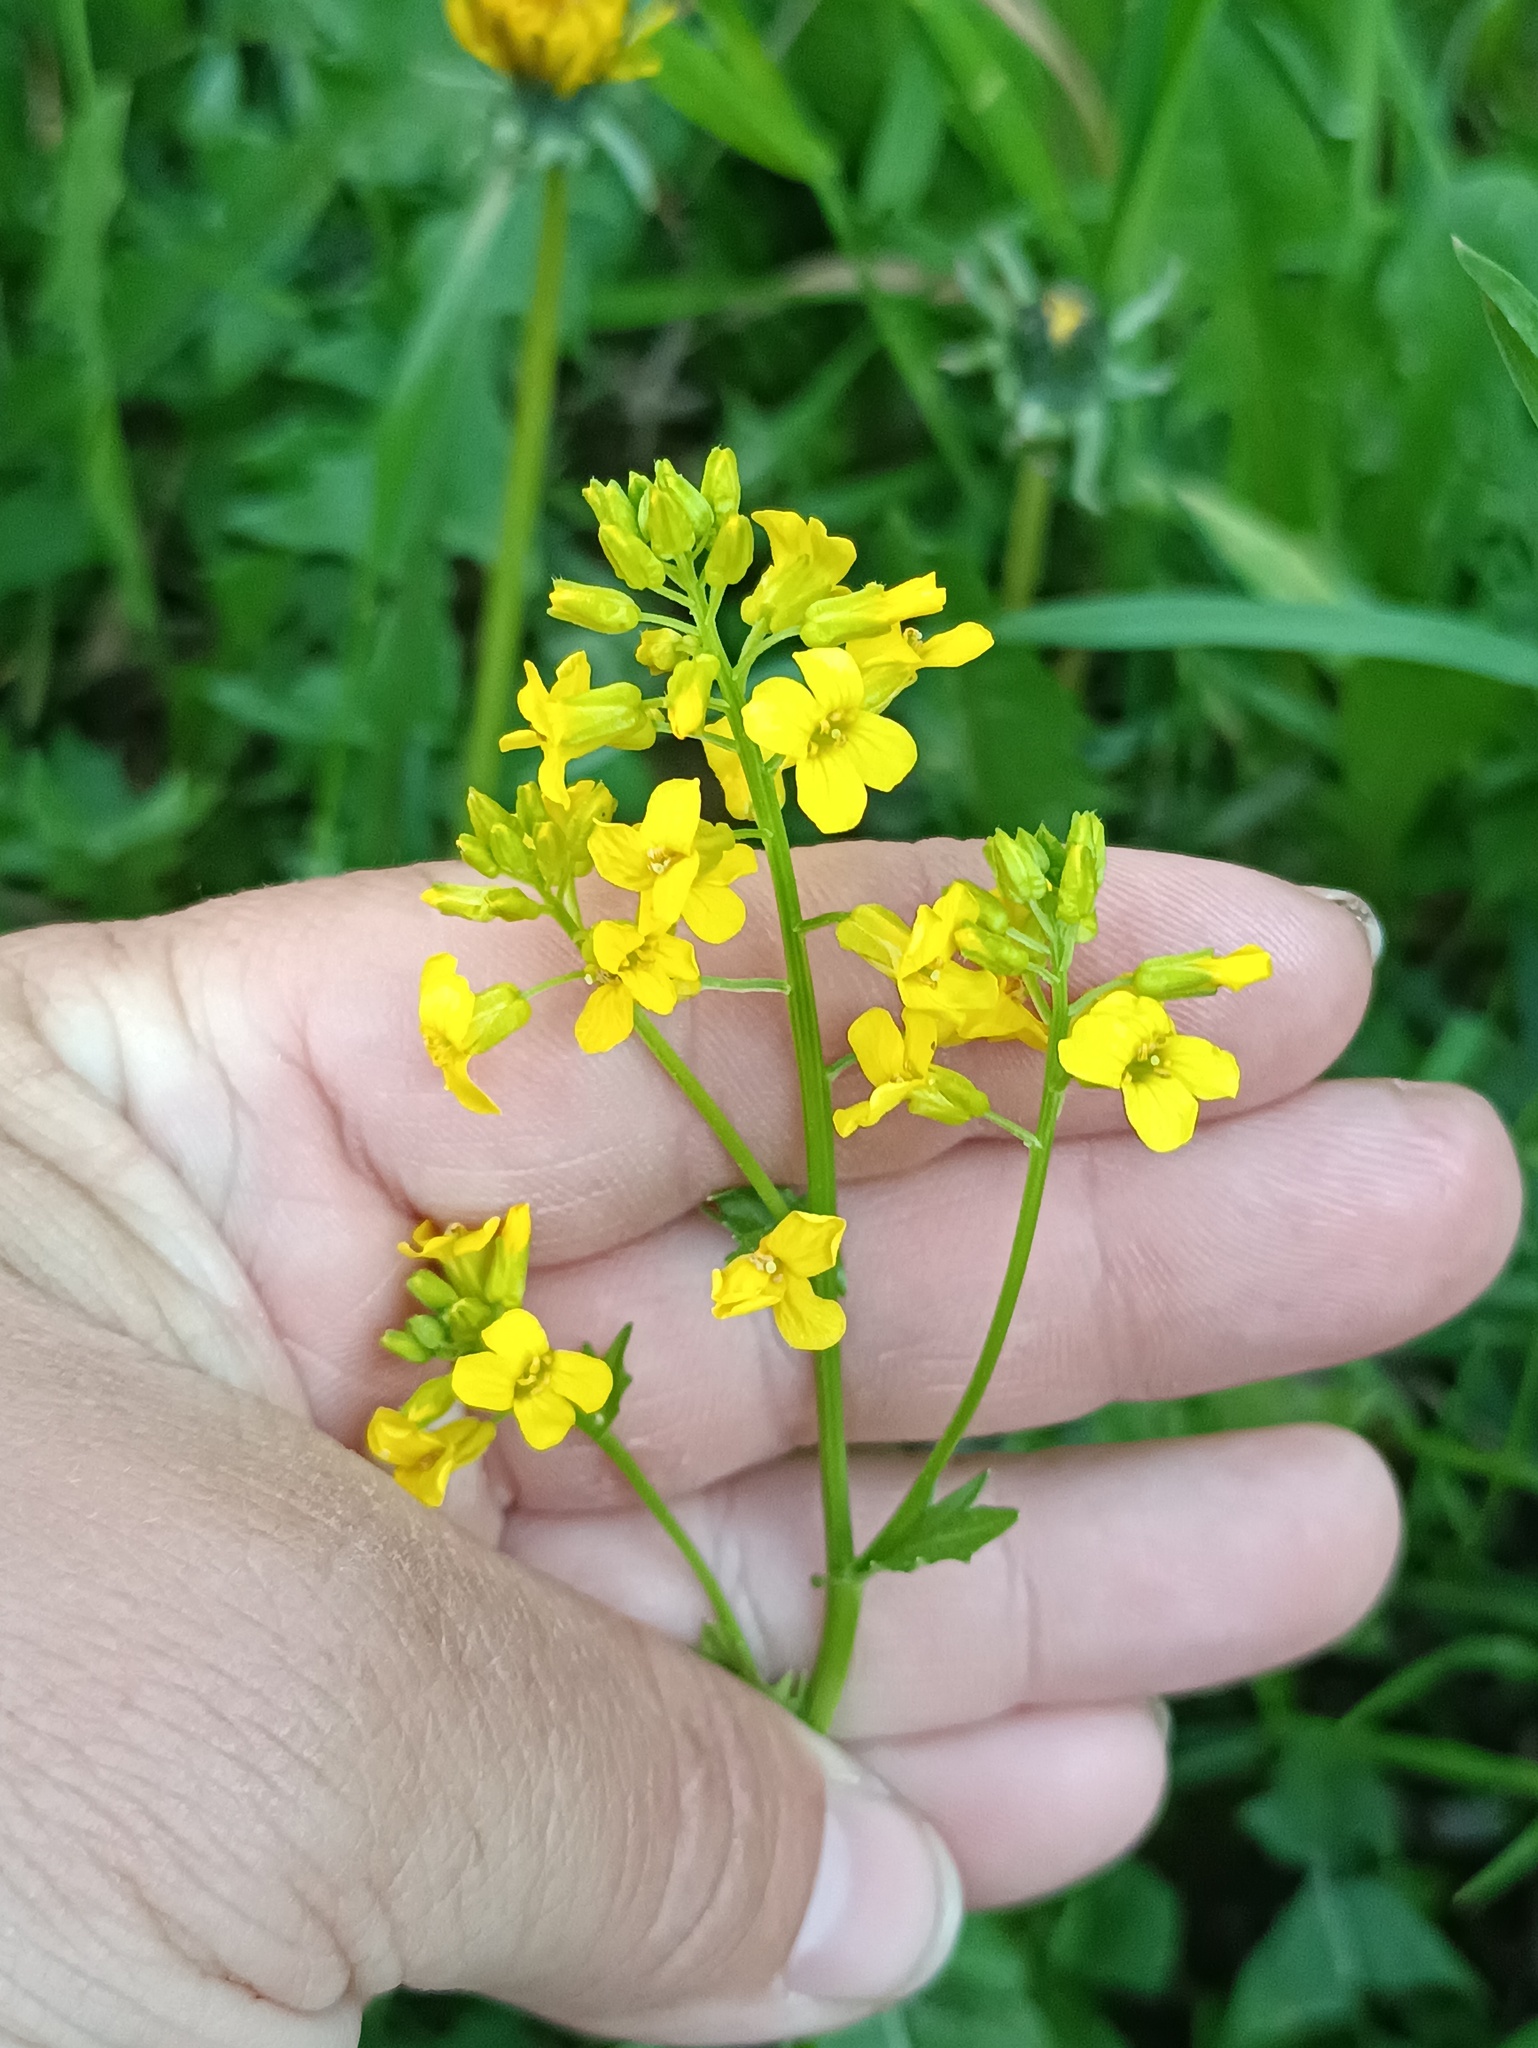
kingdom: Plantae
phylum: Tracheophyta
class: Magnoliopsida
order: Brassicales
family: Brassicaceae
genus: Barbarea
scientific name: Barbarea vulgaris
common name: Cressy-greens
